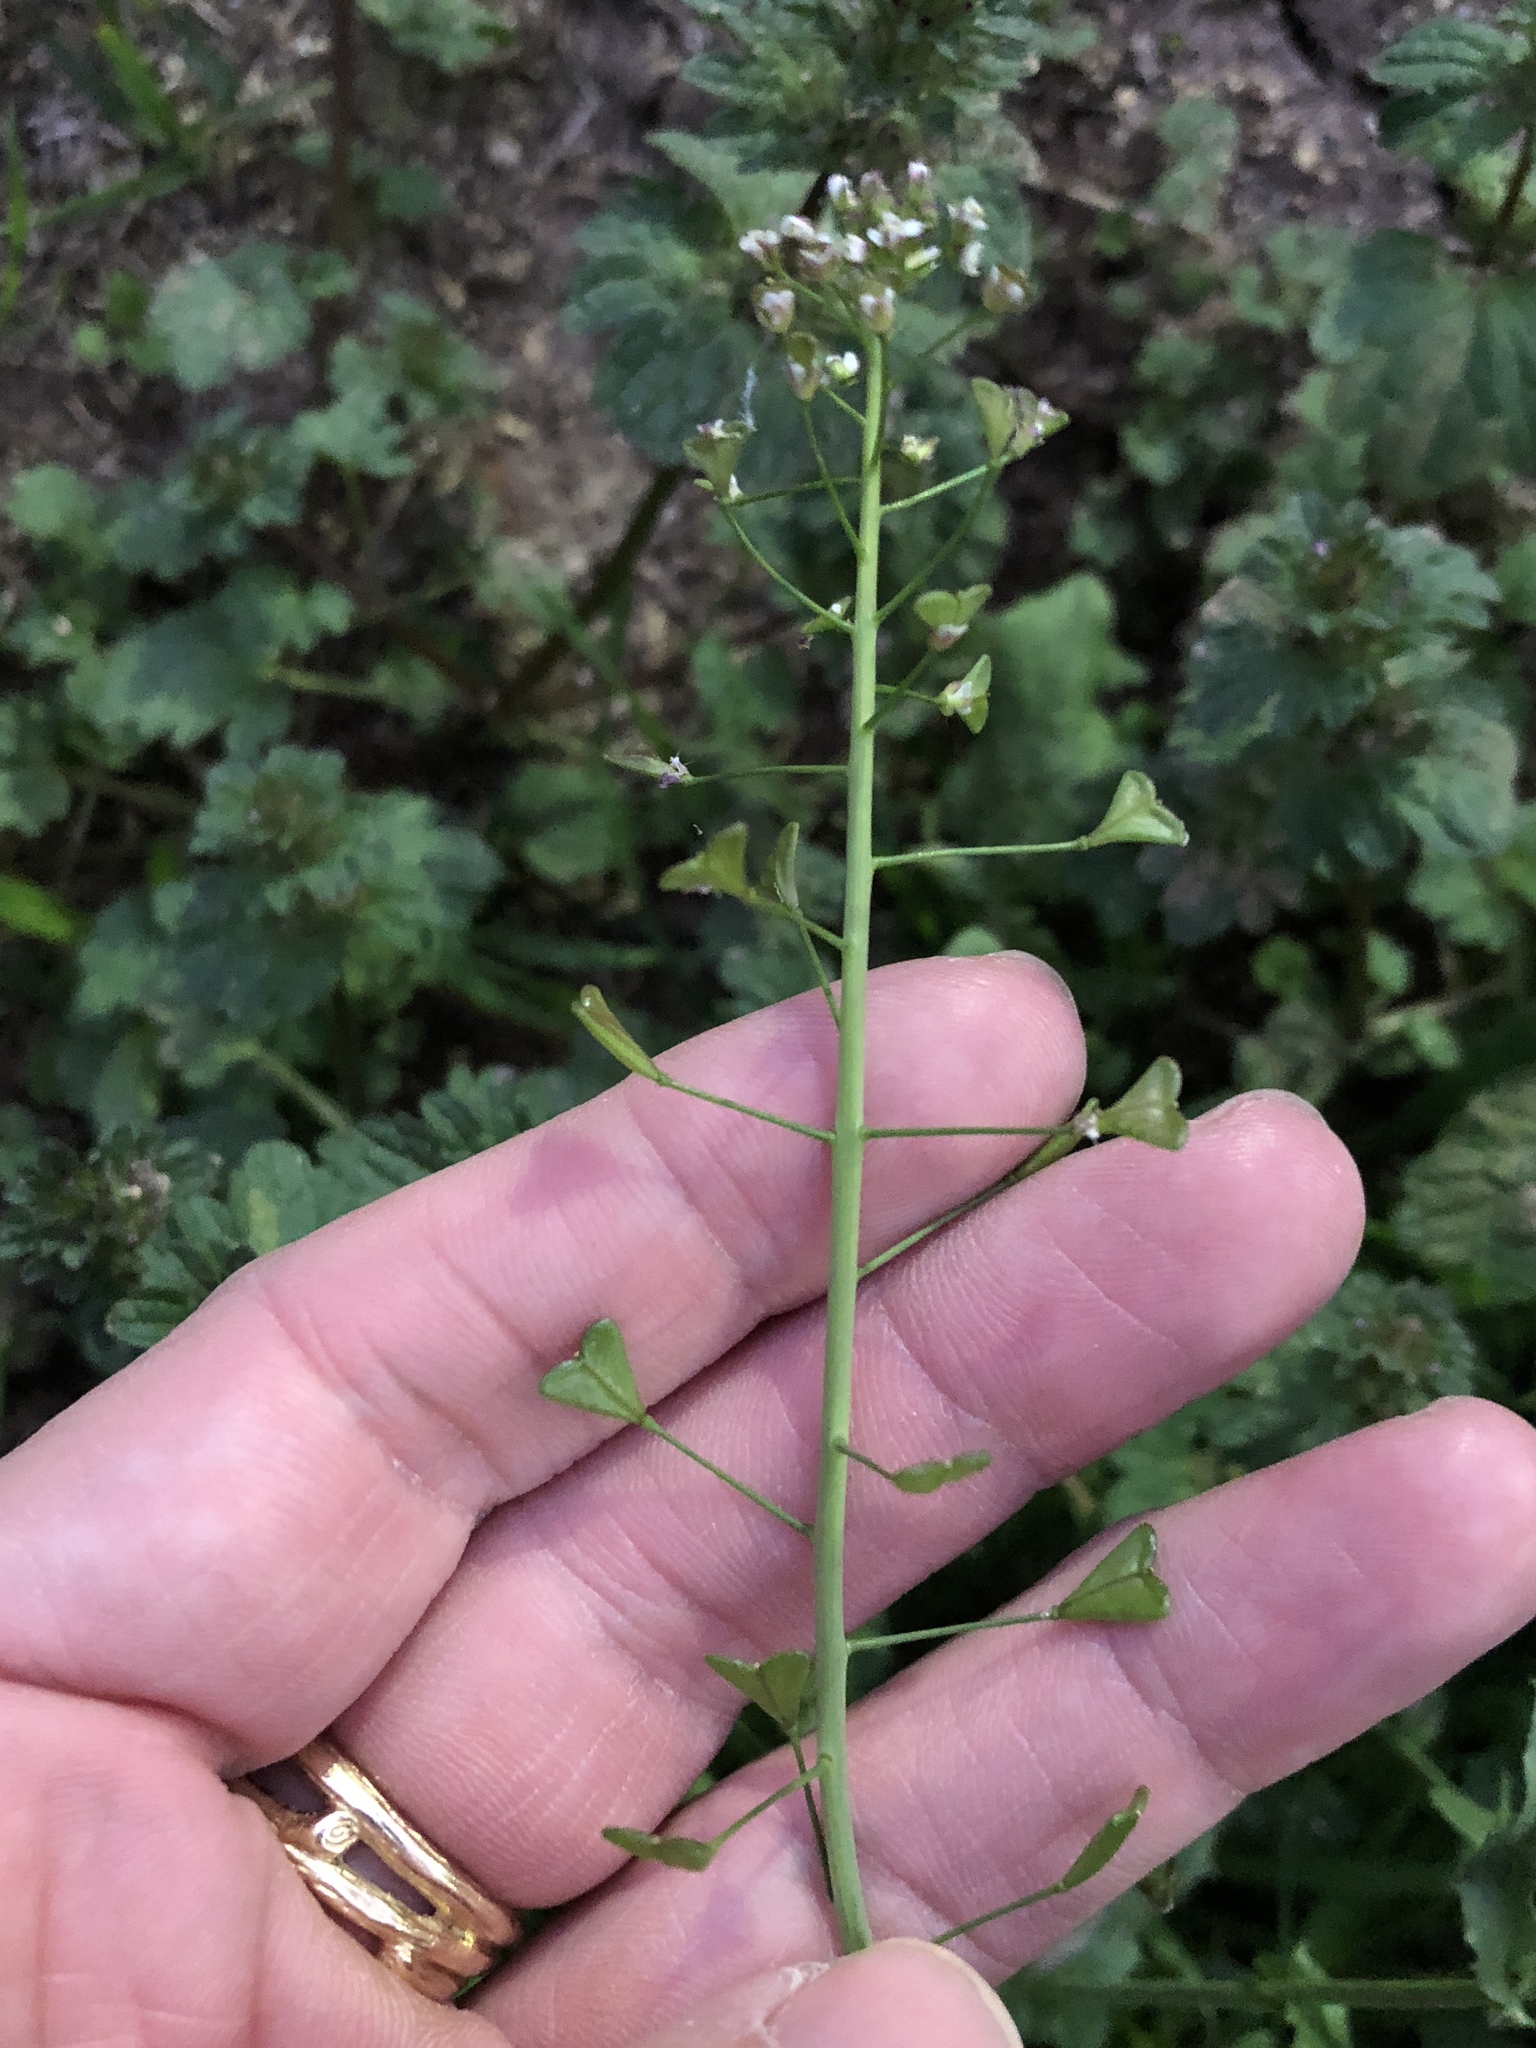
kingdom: Plantae
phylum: Tracheophyta
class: Magnoliopsida
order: Brassicales
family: Brassicaceae
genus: Capsella
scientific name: Capsella bursa-pastoris
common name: Shepherd's purse
